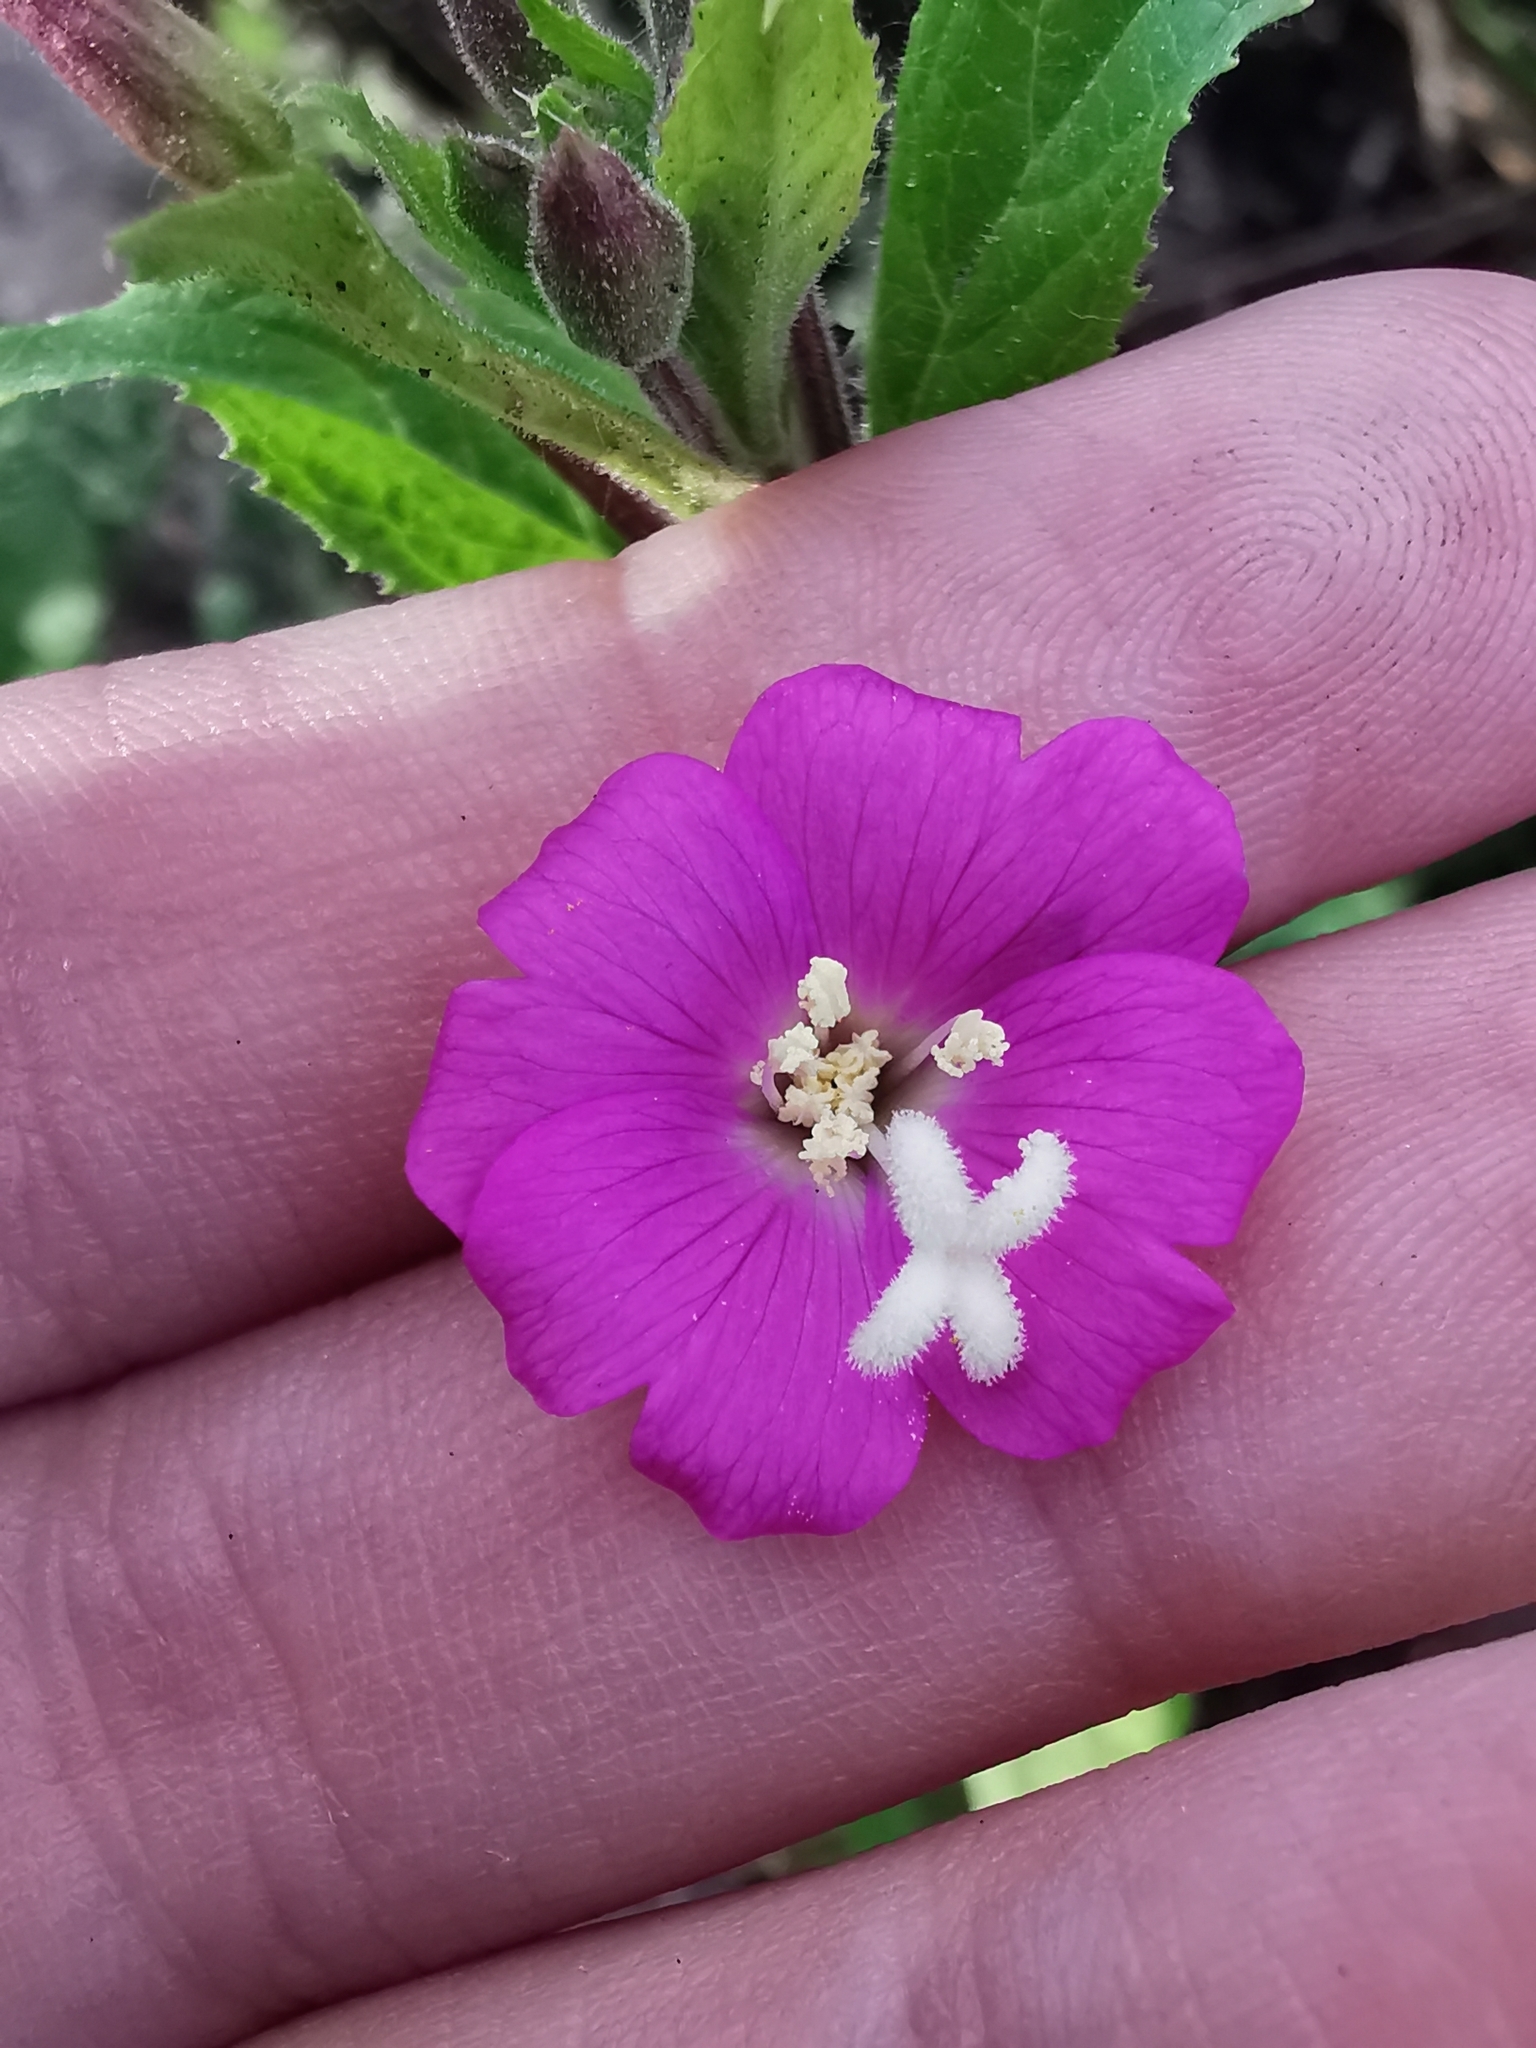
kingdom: Plantae
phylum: Tracheophyta
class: Magnoliopsida
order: Myrtales
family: Onagraceae
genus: Epilobium
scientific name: Epilobium hirsutum
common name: Great willowherb
